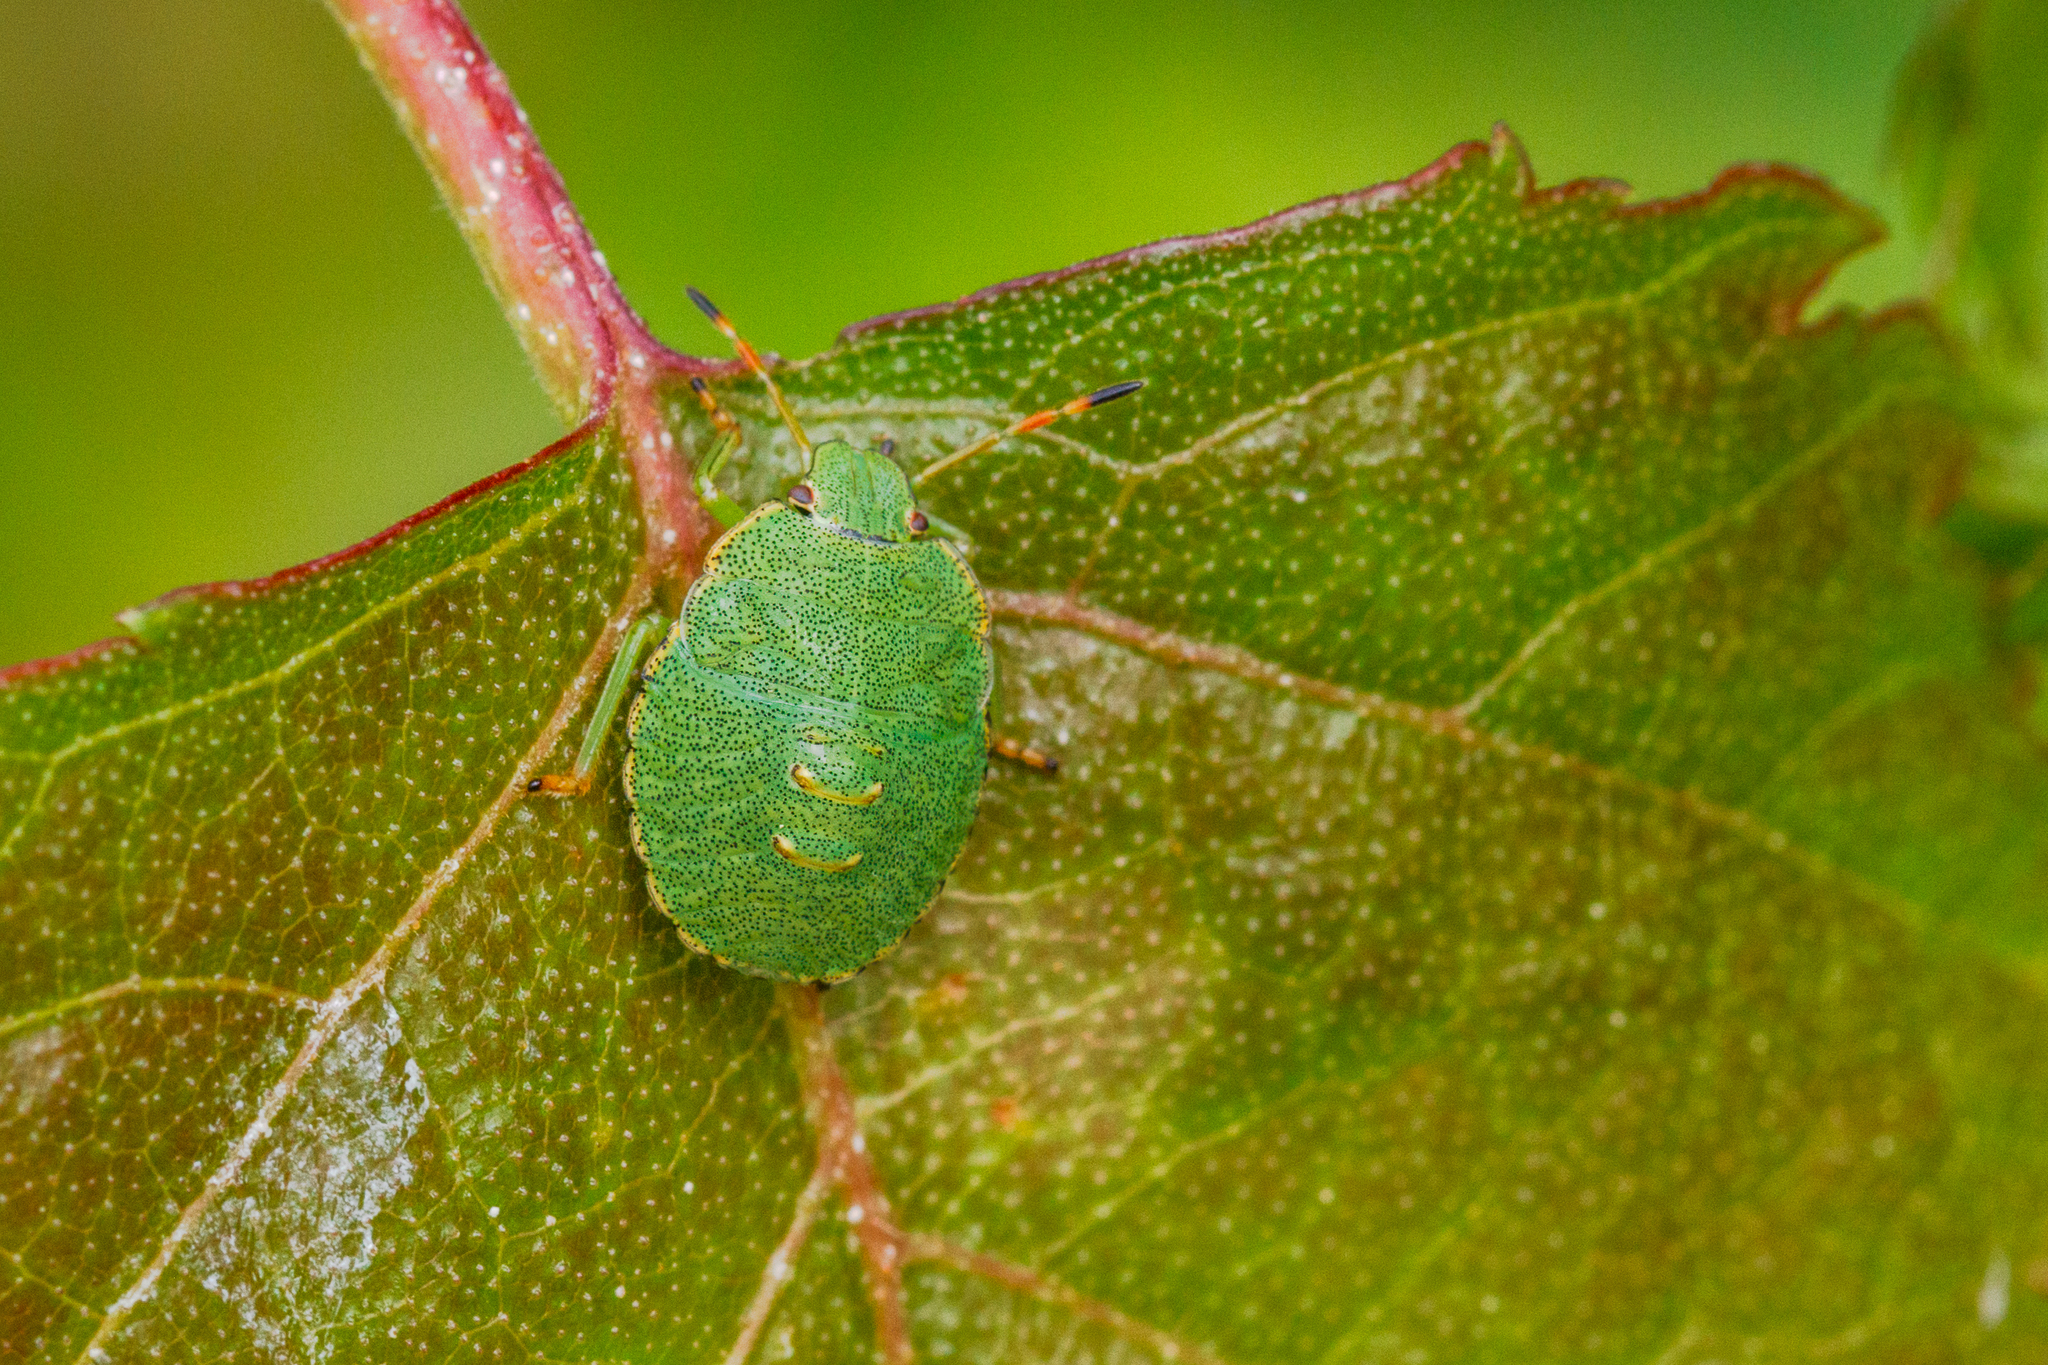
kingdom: Animalia
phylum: Arthropoda
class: Insecta
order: Hemiptera
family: Pentatomidae
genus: Palomena
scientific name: Palomena prasina
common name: Green shieldbug
